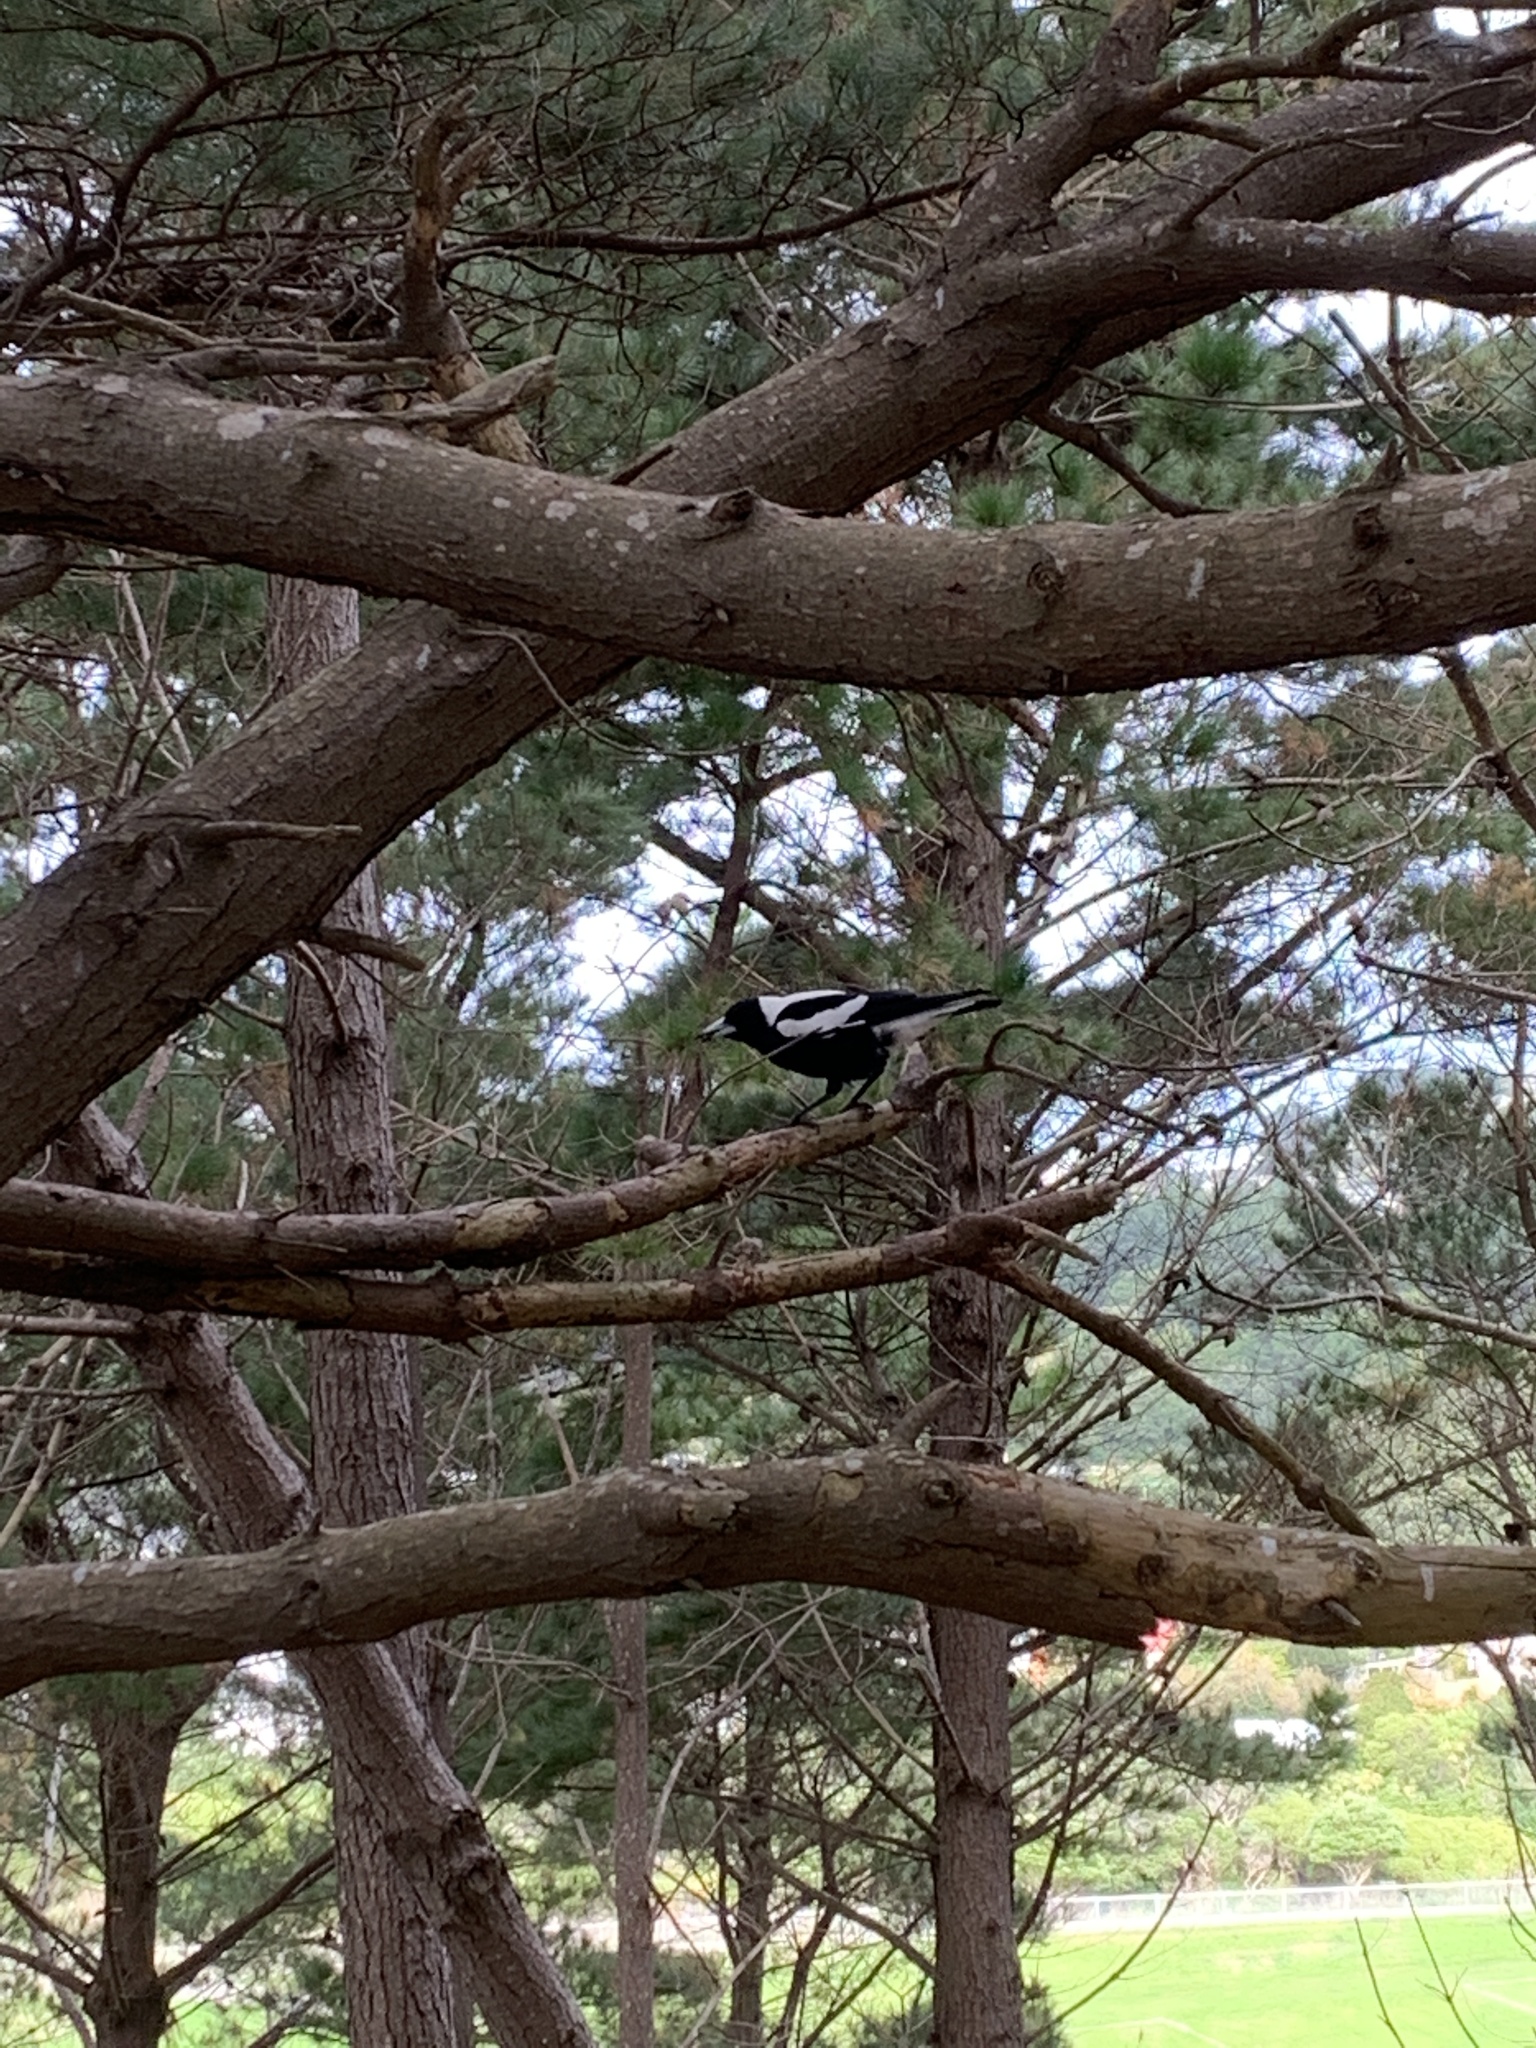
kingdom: Animalia
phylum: Chordata
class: Aves
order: Passeriformes
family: Cracticidae
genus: Gymnorhina
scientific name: Gymnorhina tibicen
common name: Australian magpie
